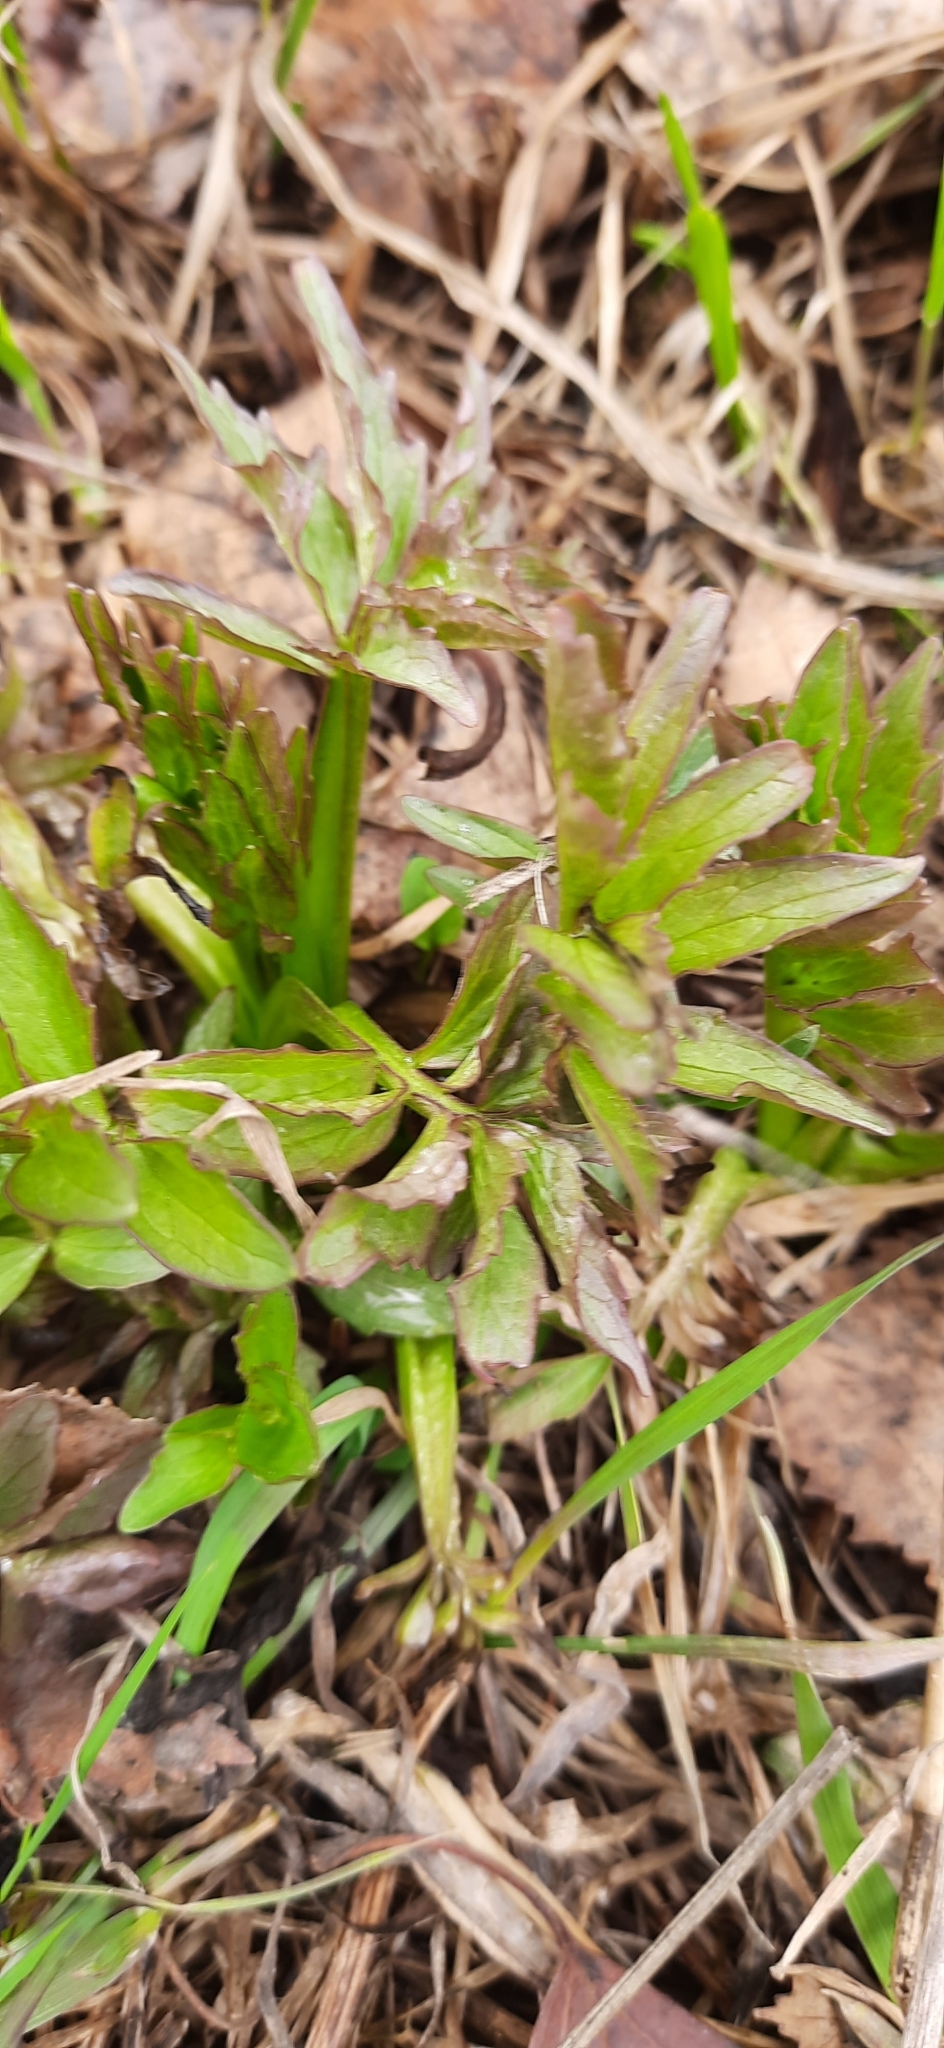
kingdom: Plantae
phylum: Tracheophyta
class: Magnoliopsida
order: Dipsacales
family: Caprifoliaceae
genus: Valeriana
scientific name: Valeriana wolgensis
